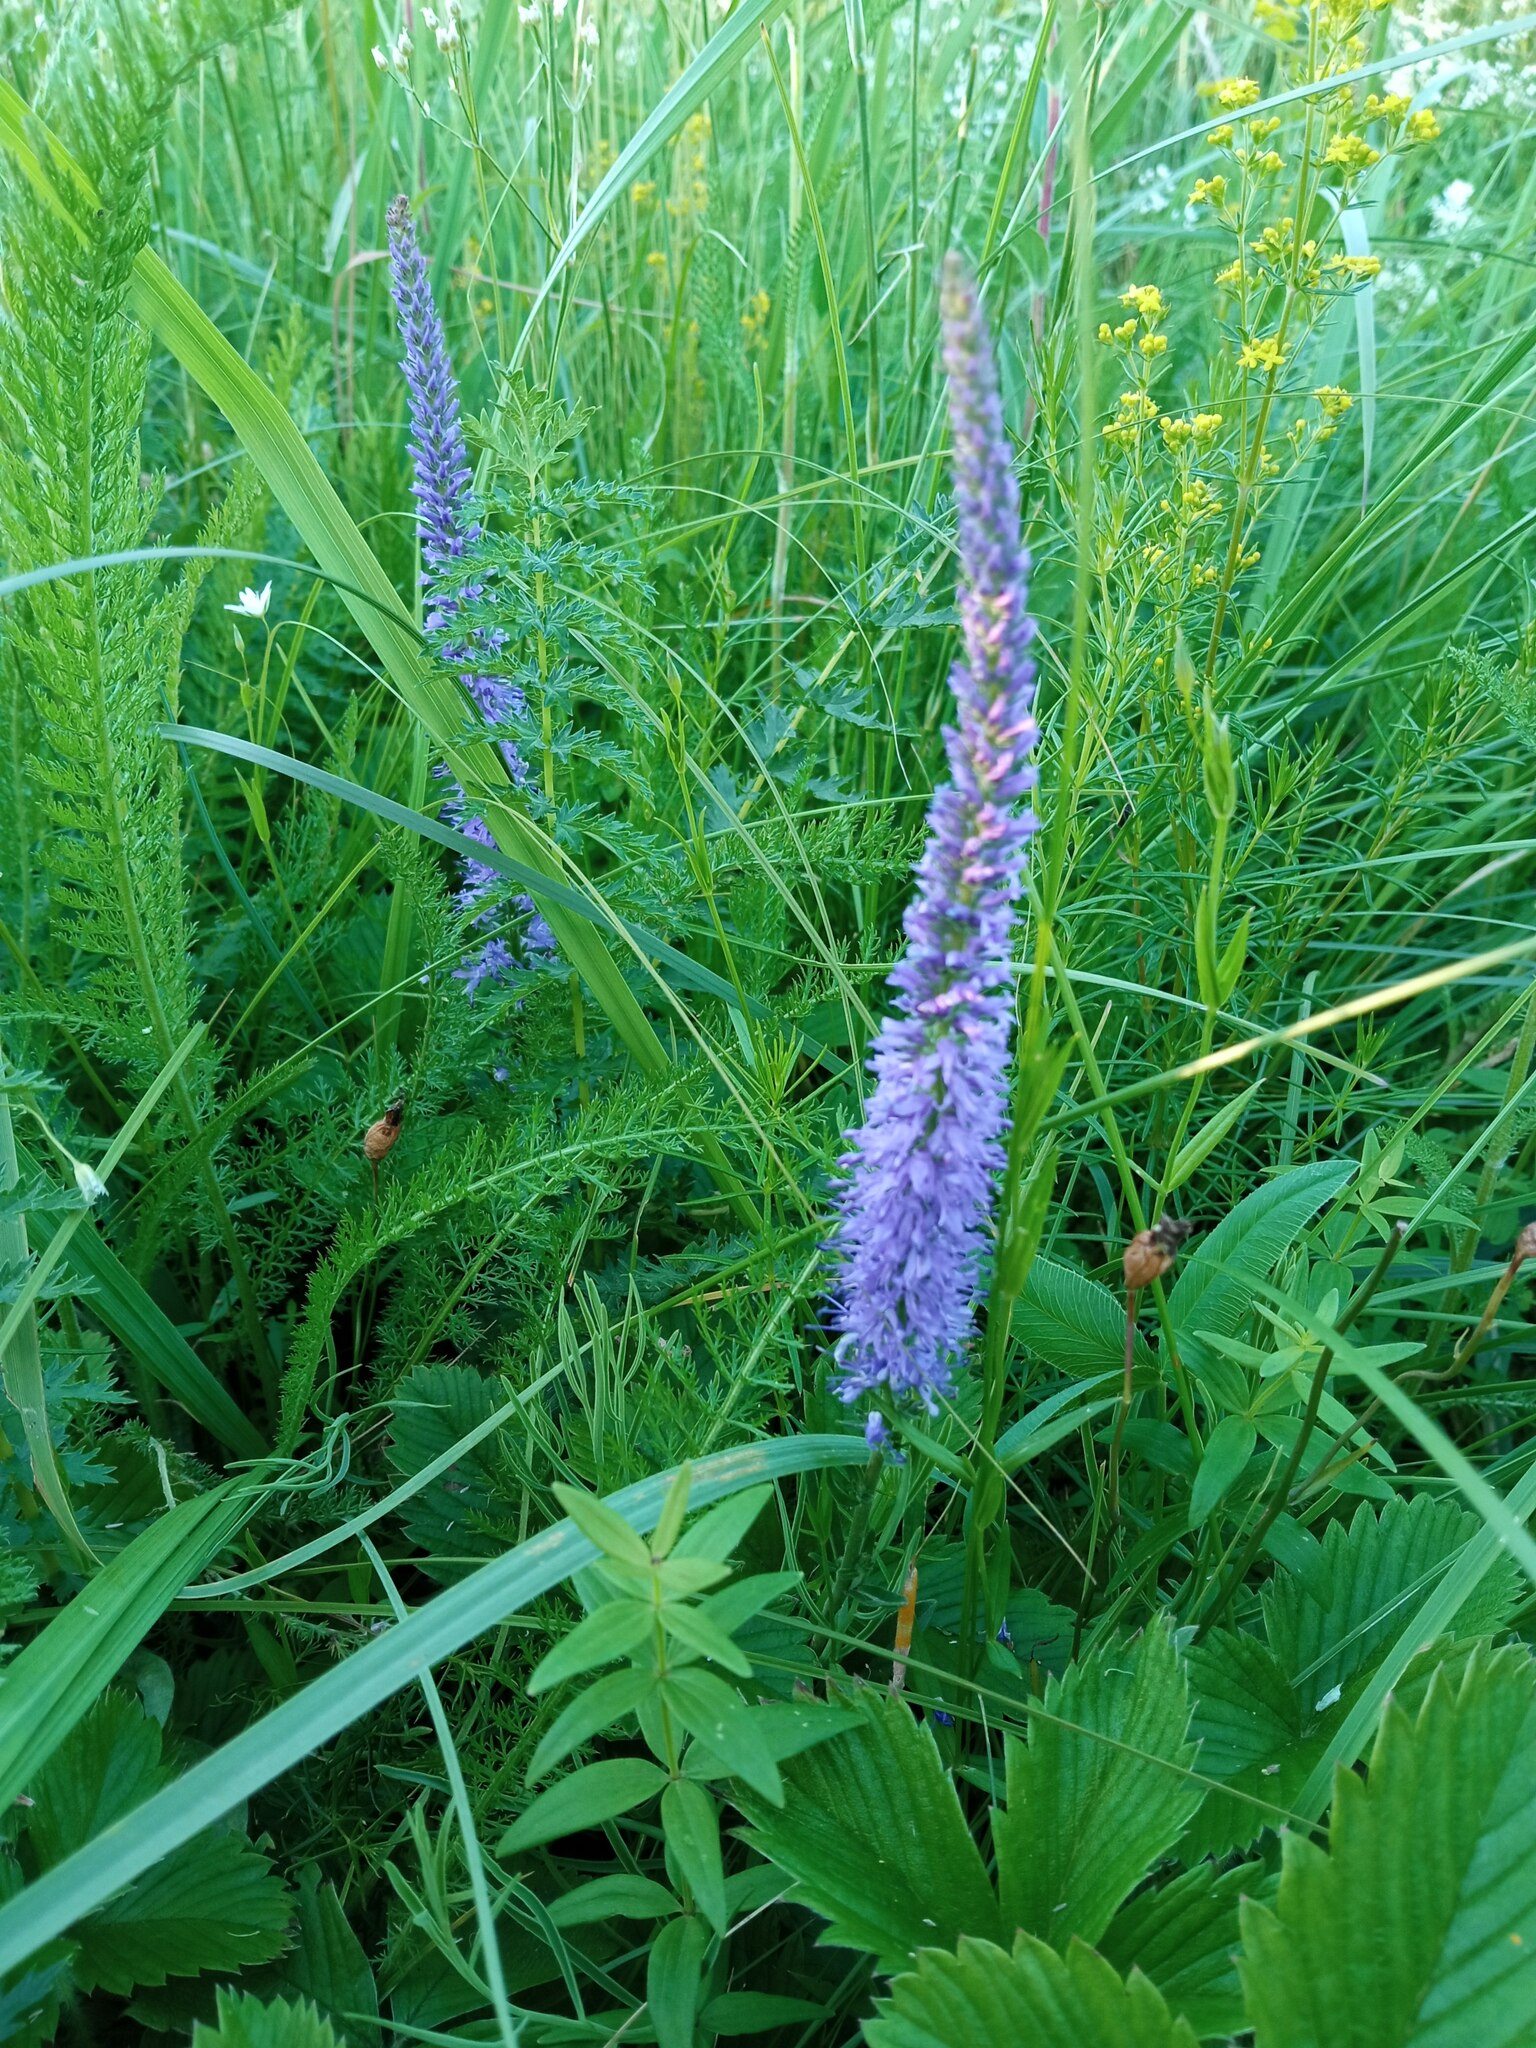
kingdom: Plantae
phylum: Tracheophyta
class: Magnoliopsida
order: Lamiales
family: Plantaginaceae
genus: Veronica
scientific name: Veronica spicata
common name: Spiked speedwell
